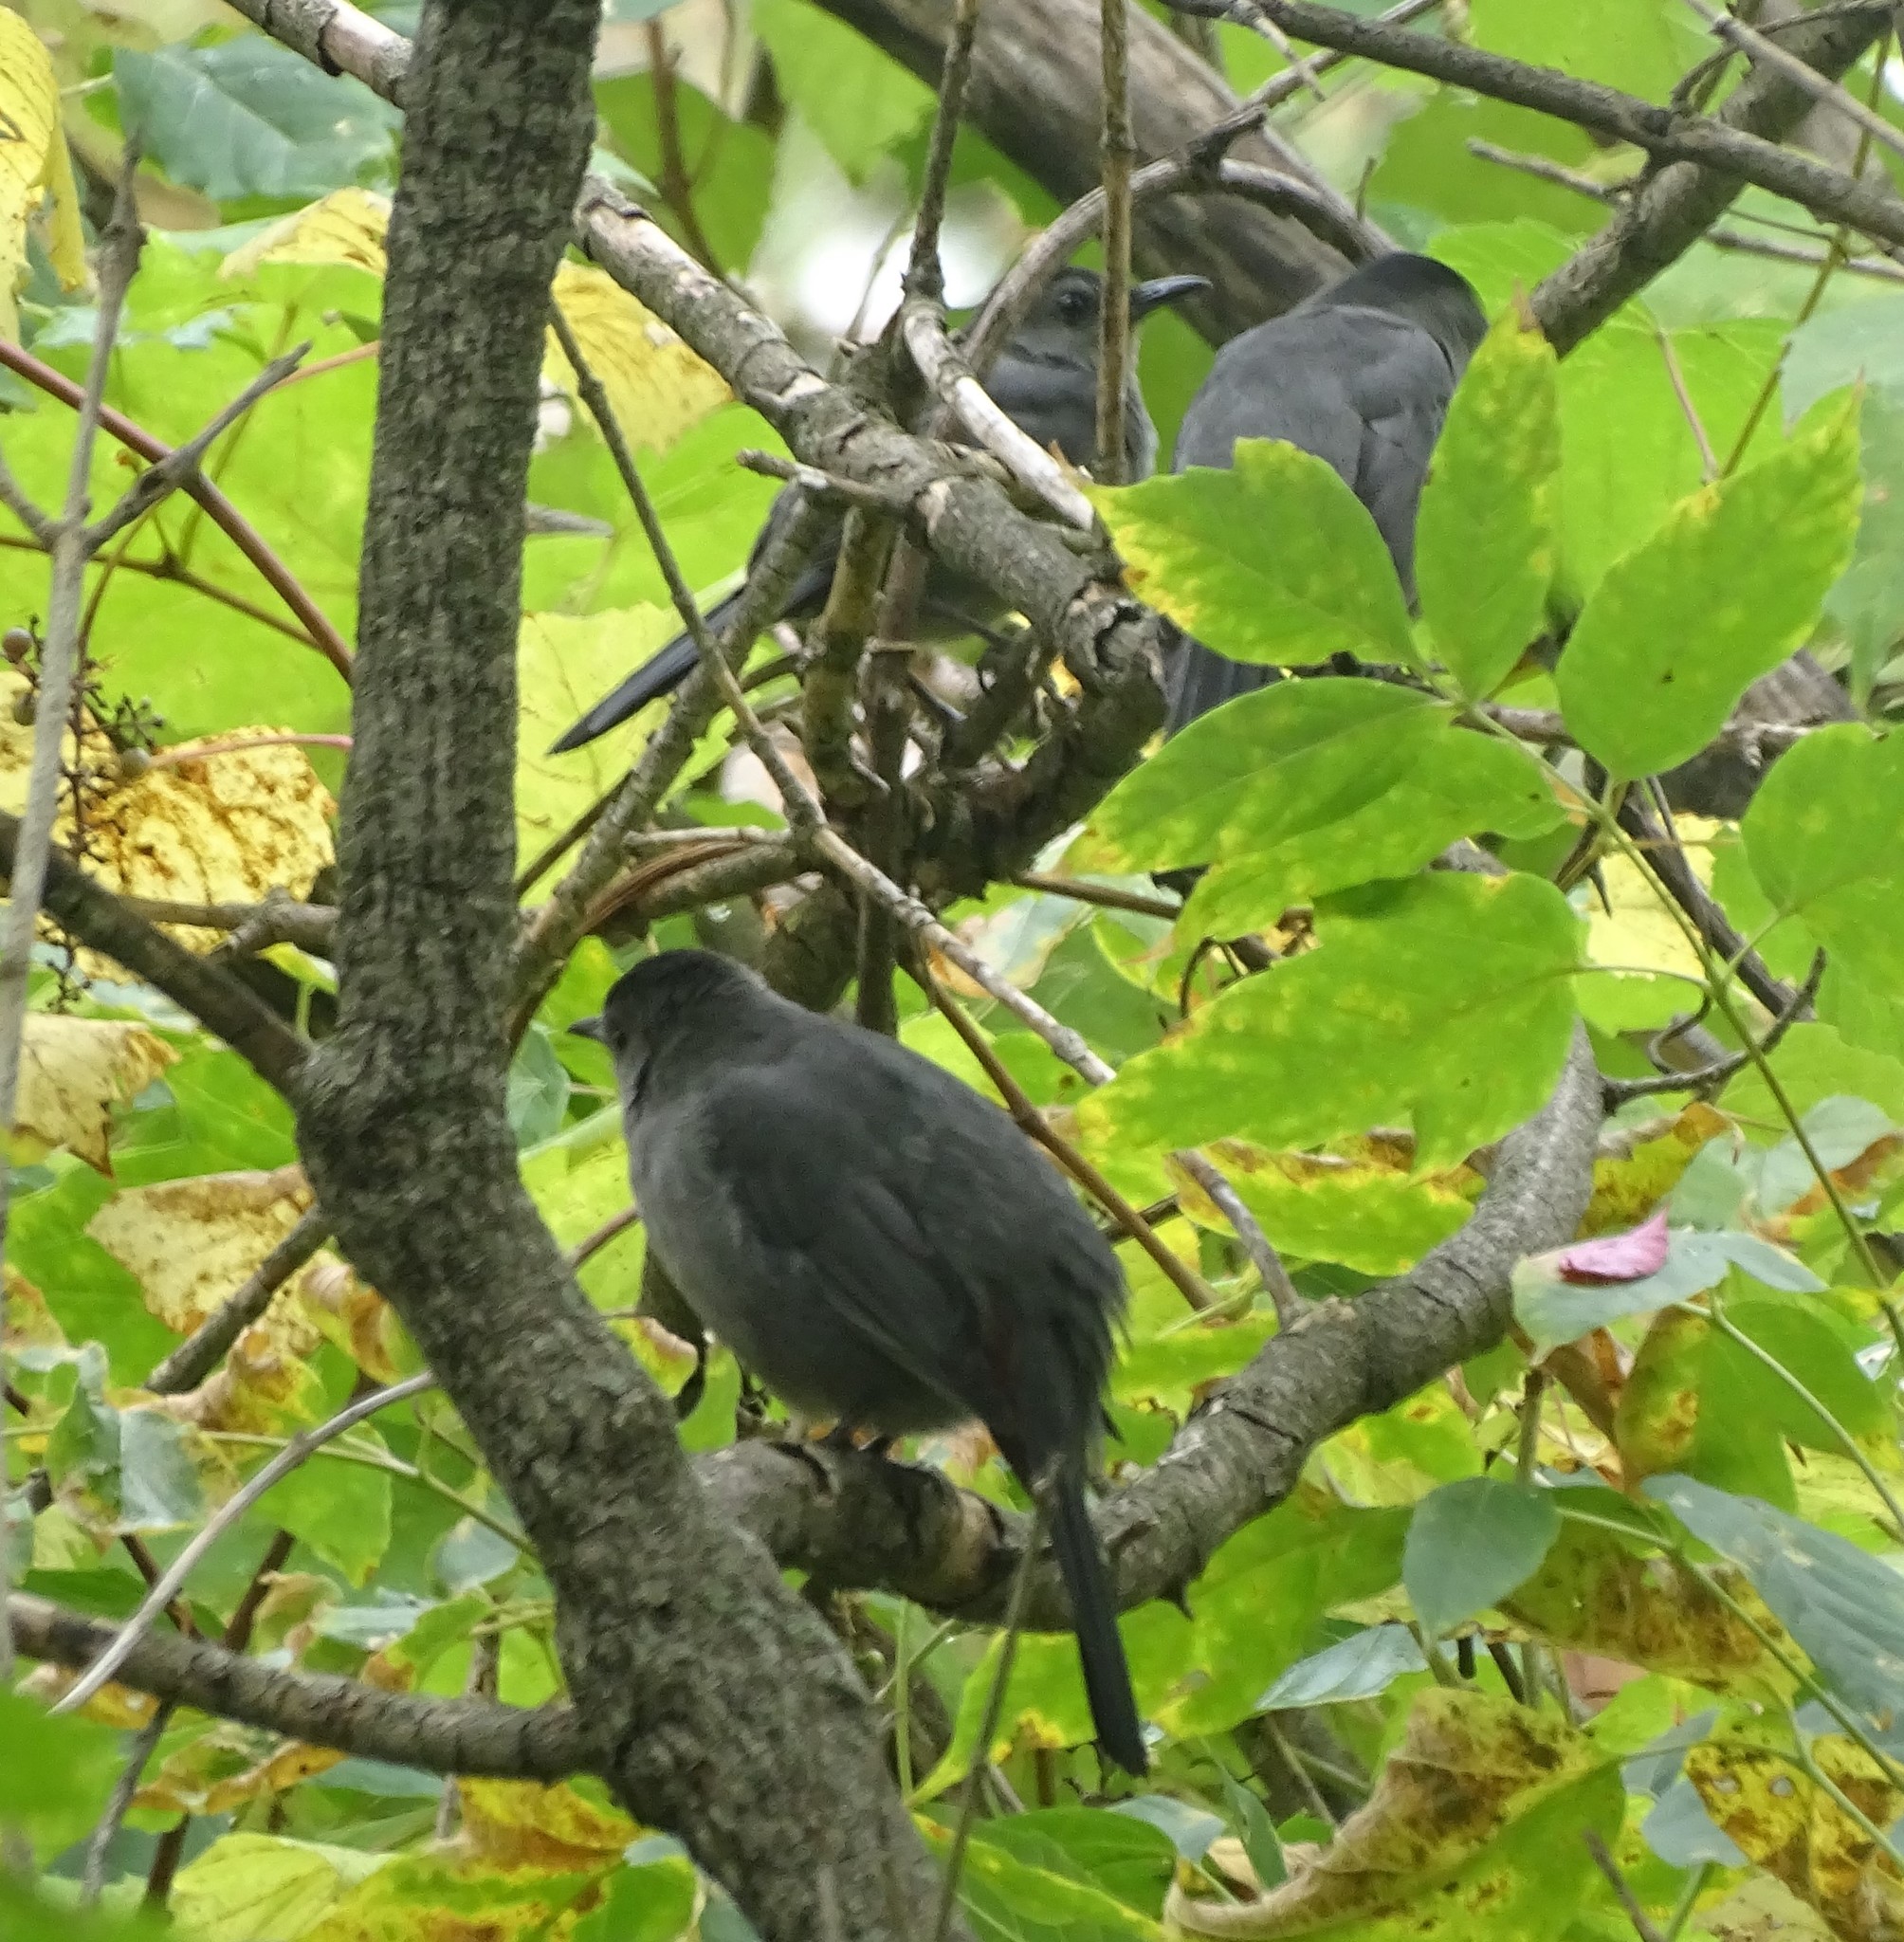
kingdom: Animalia
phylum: Chordata
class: Aves
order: Passeriformes
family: Mimidae
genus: Dumetella
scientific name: Dumetella carolinensis
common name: Gray catbird
